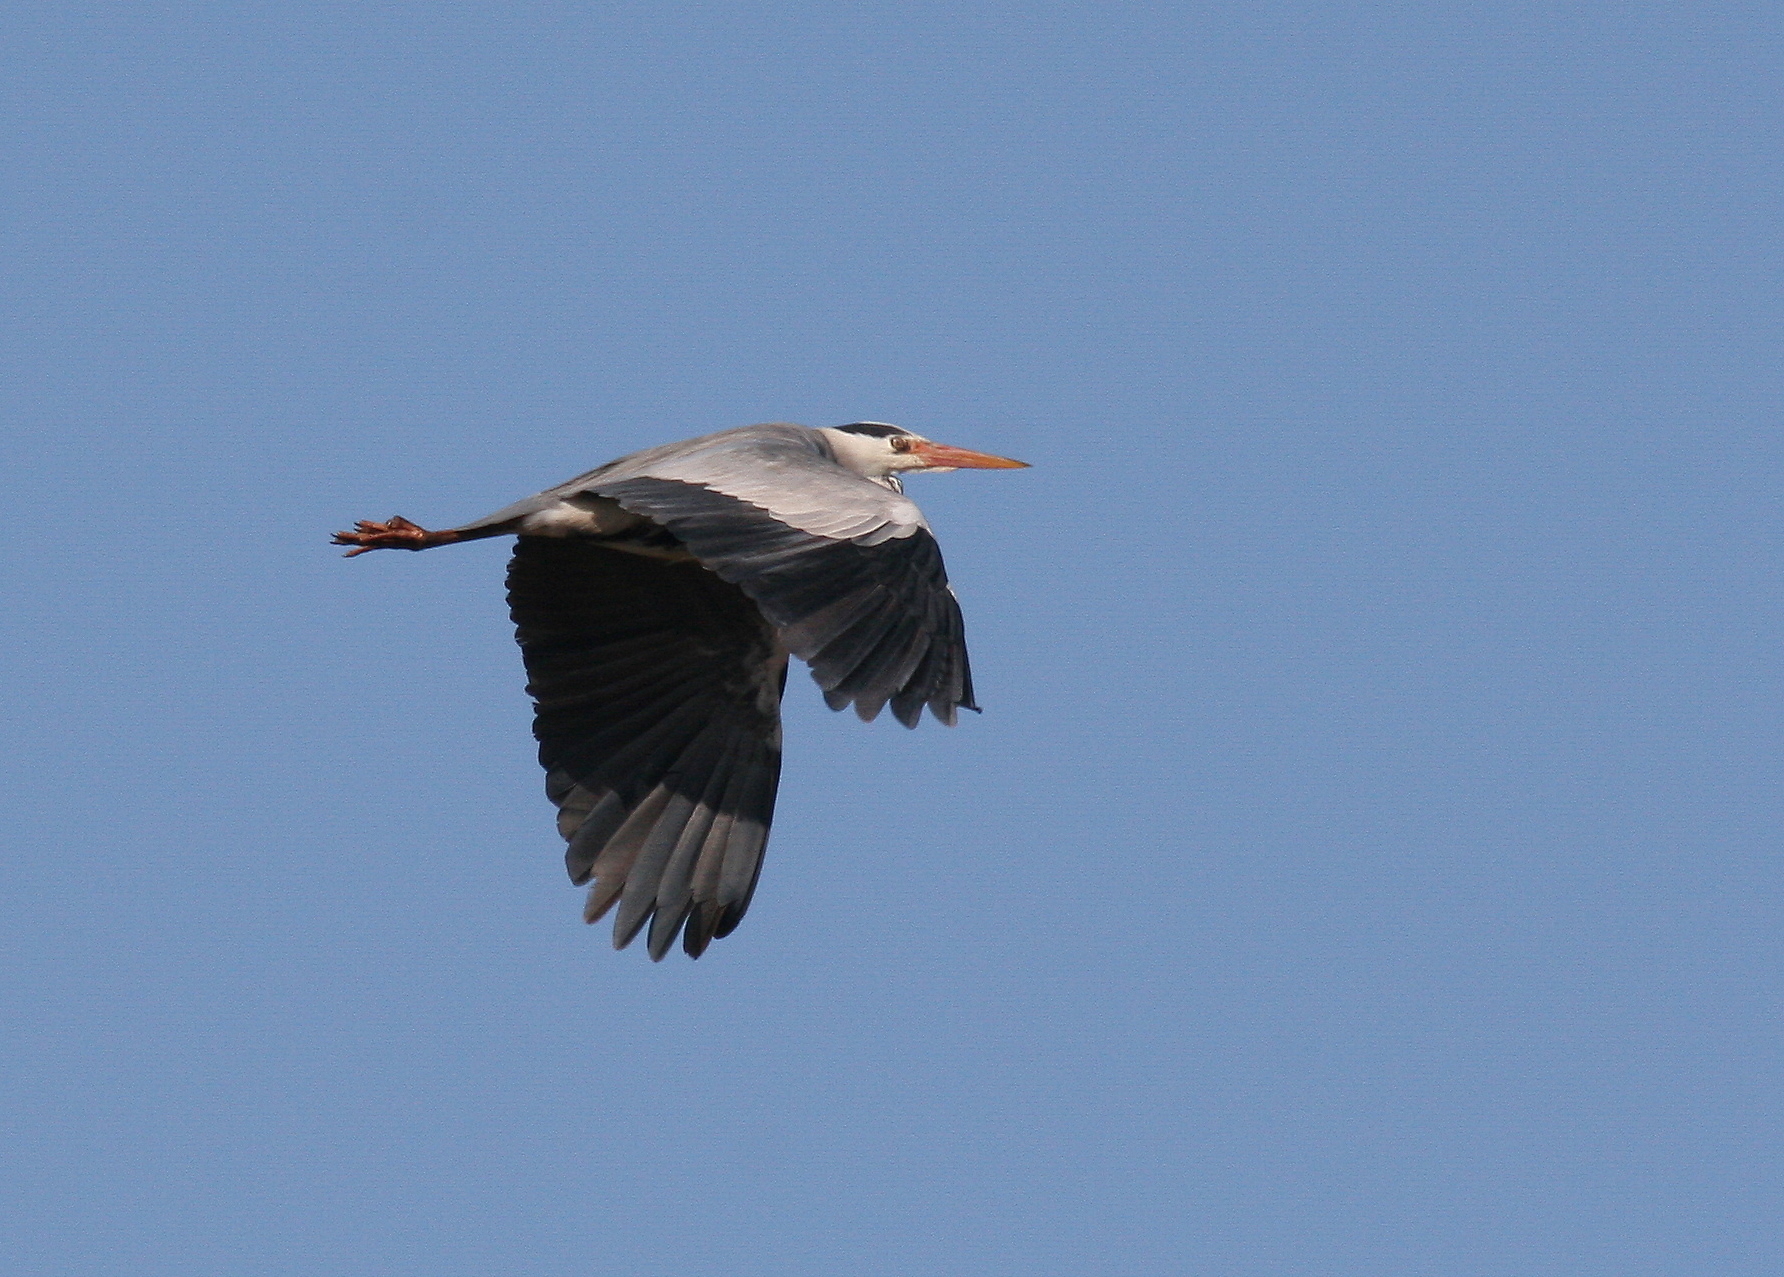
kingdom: Animalia
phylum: Chordata
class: Aves
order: Pelecaniformes
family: Ardeidae
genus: Ardea
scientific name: Ardea cinerea
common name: Grey heron
